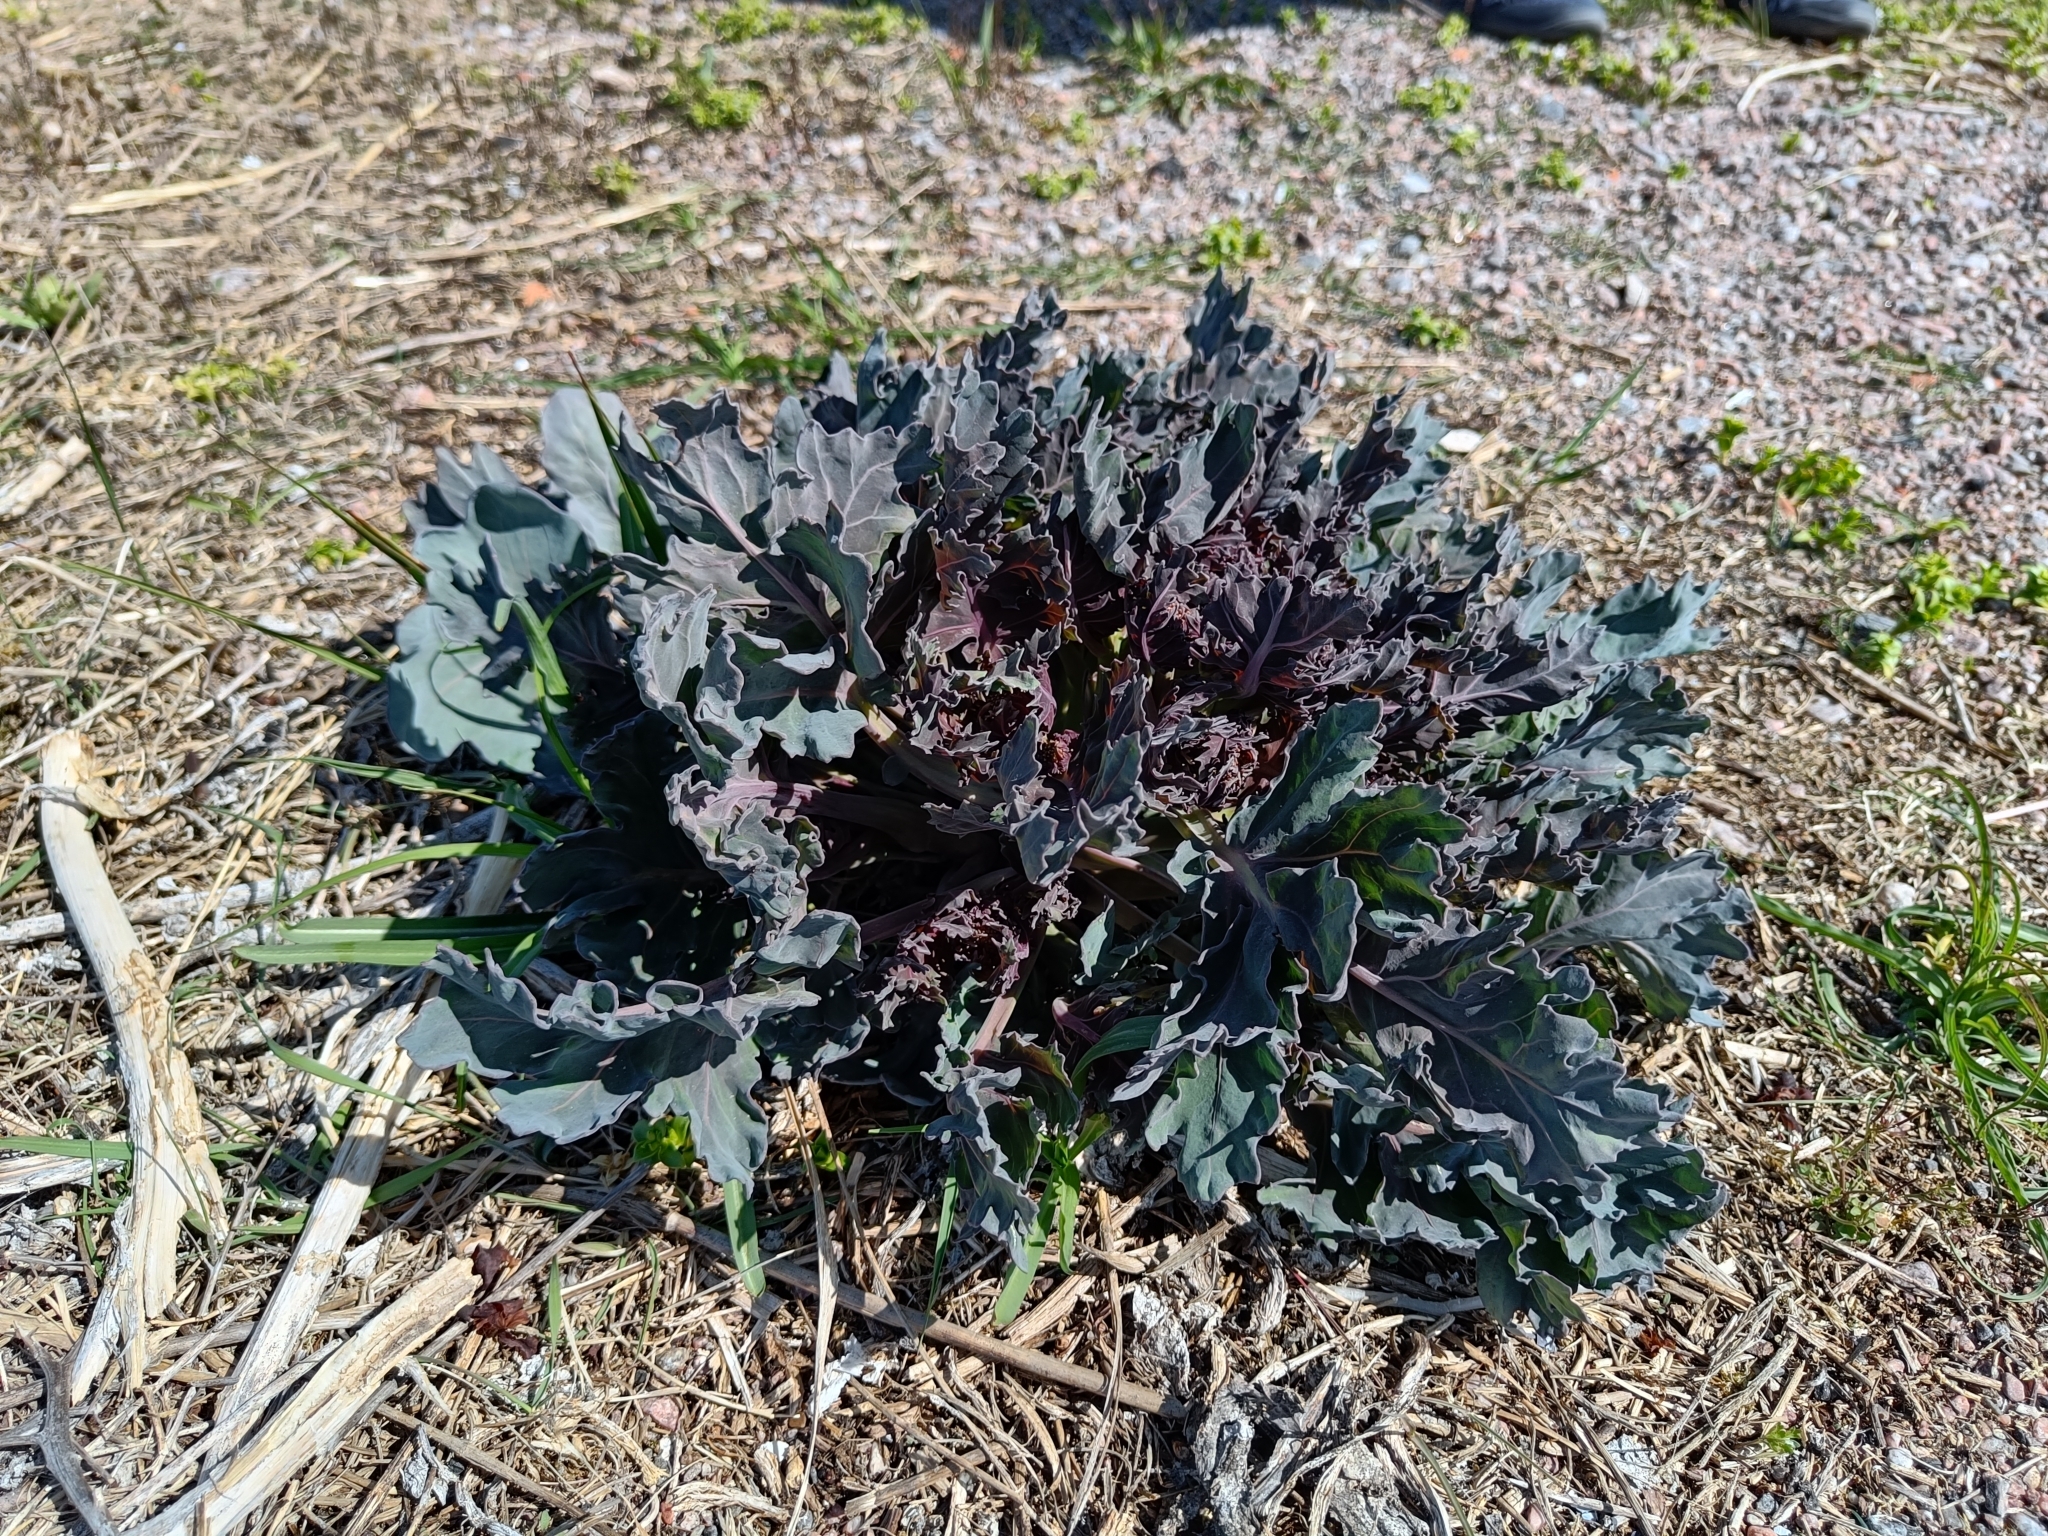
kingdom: Plantae
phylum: Tracheophyta
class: Magnoliopsida
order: Brassicales
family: Brassicaceae
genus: Crambe
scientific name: Crambe maritima
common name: Sea-kale
